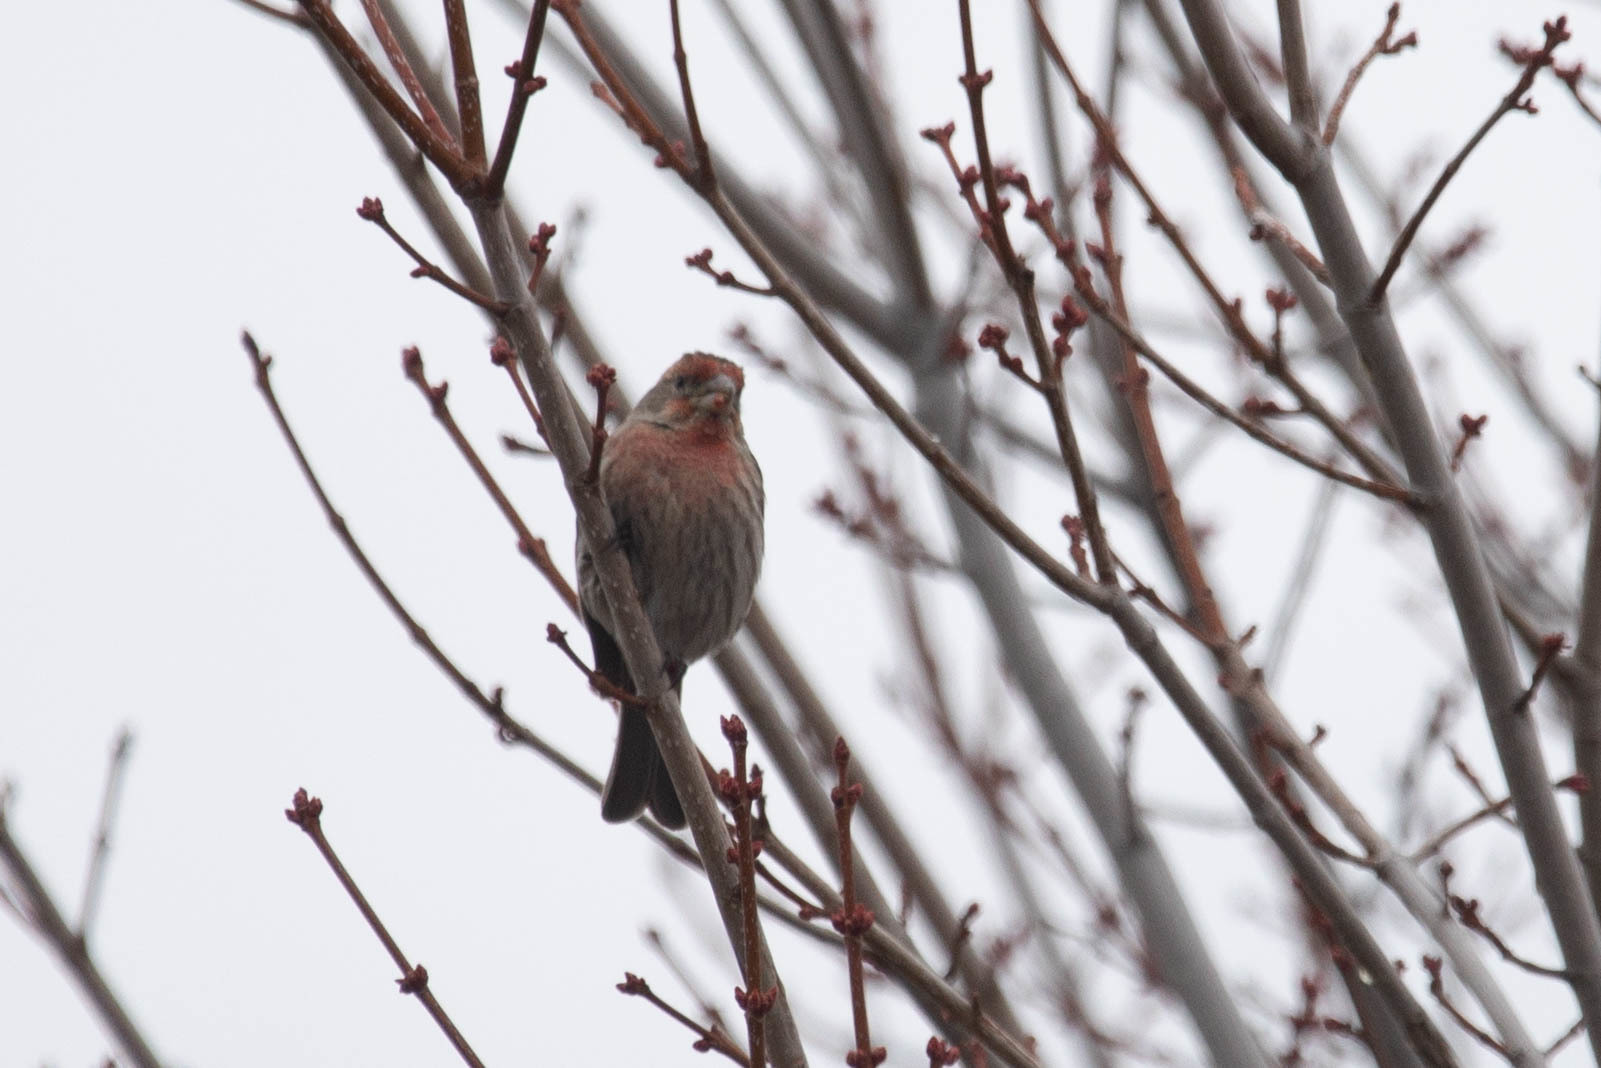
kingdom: Animalia
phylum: Chordata
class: Aves
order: Passeriformes
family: Fringillidae
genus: Haemorhous
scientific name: Haemorhous mexicanus
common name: House finch
